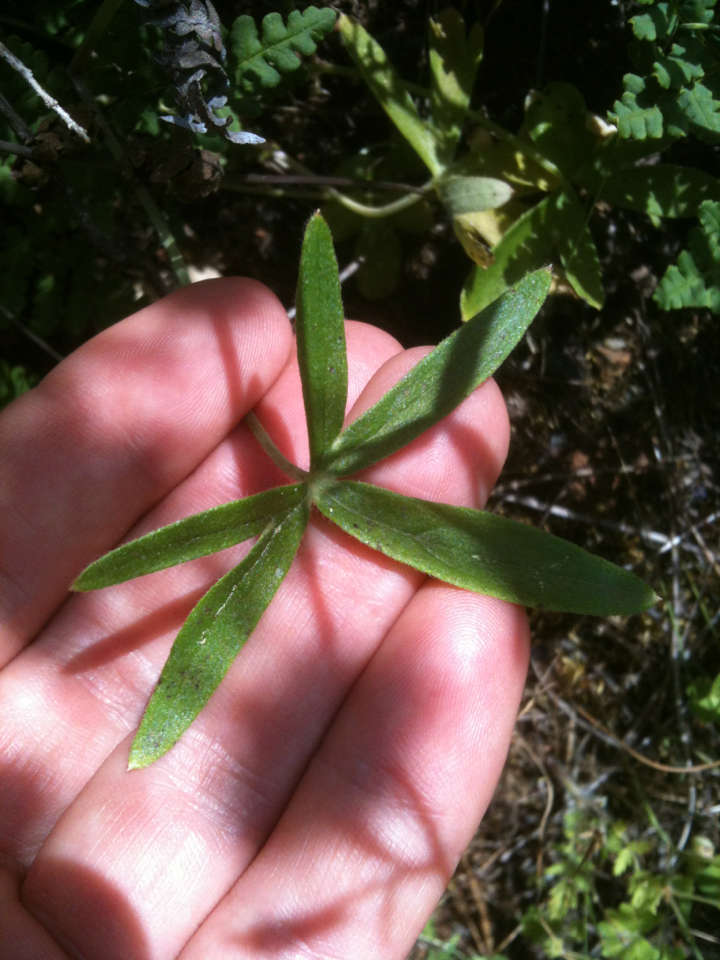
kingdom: Plantae
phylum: Tracheophyta
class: Magnoliopsida
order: Ranunculales
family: Ranunculaceae
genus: Delphinium
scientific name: Delphinium patens
